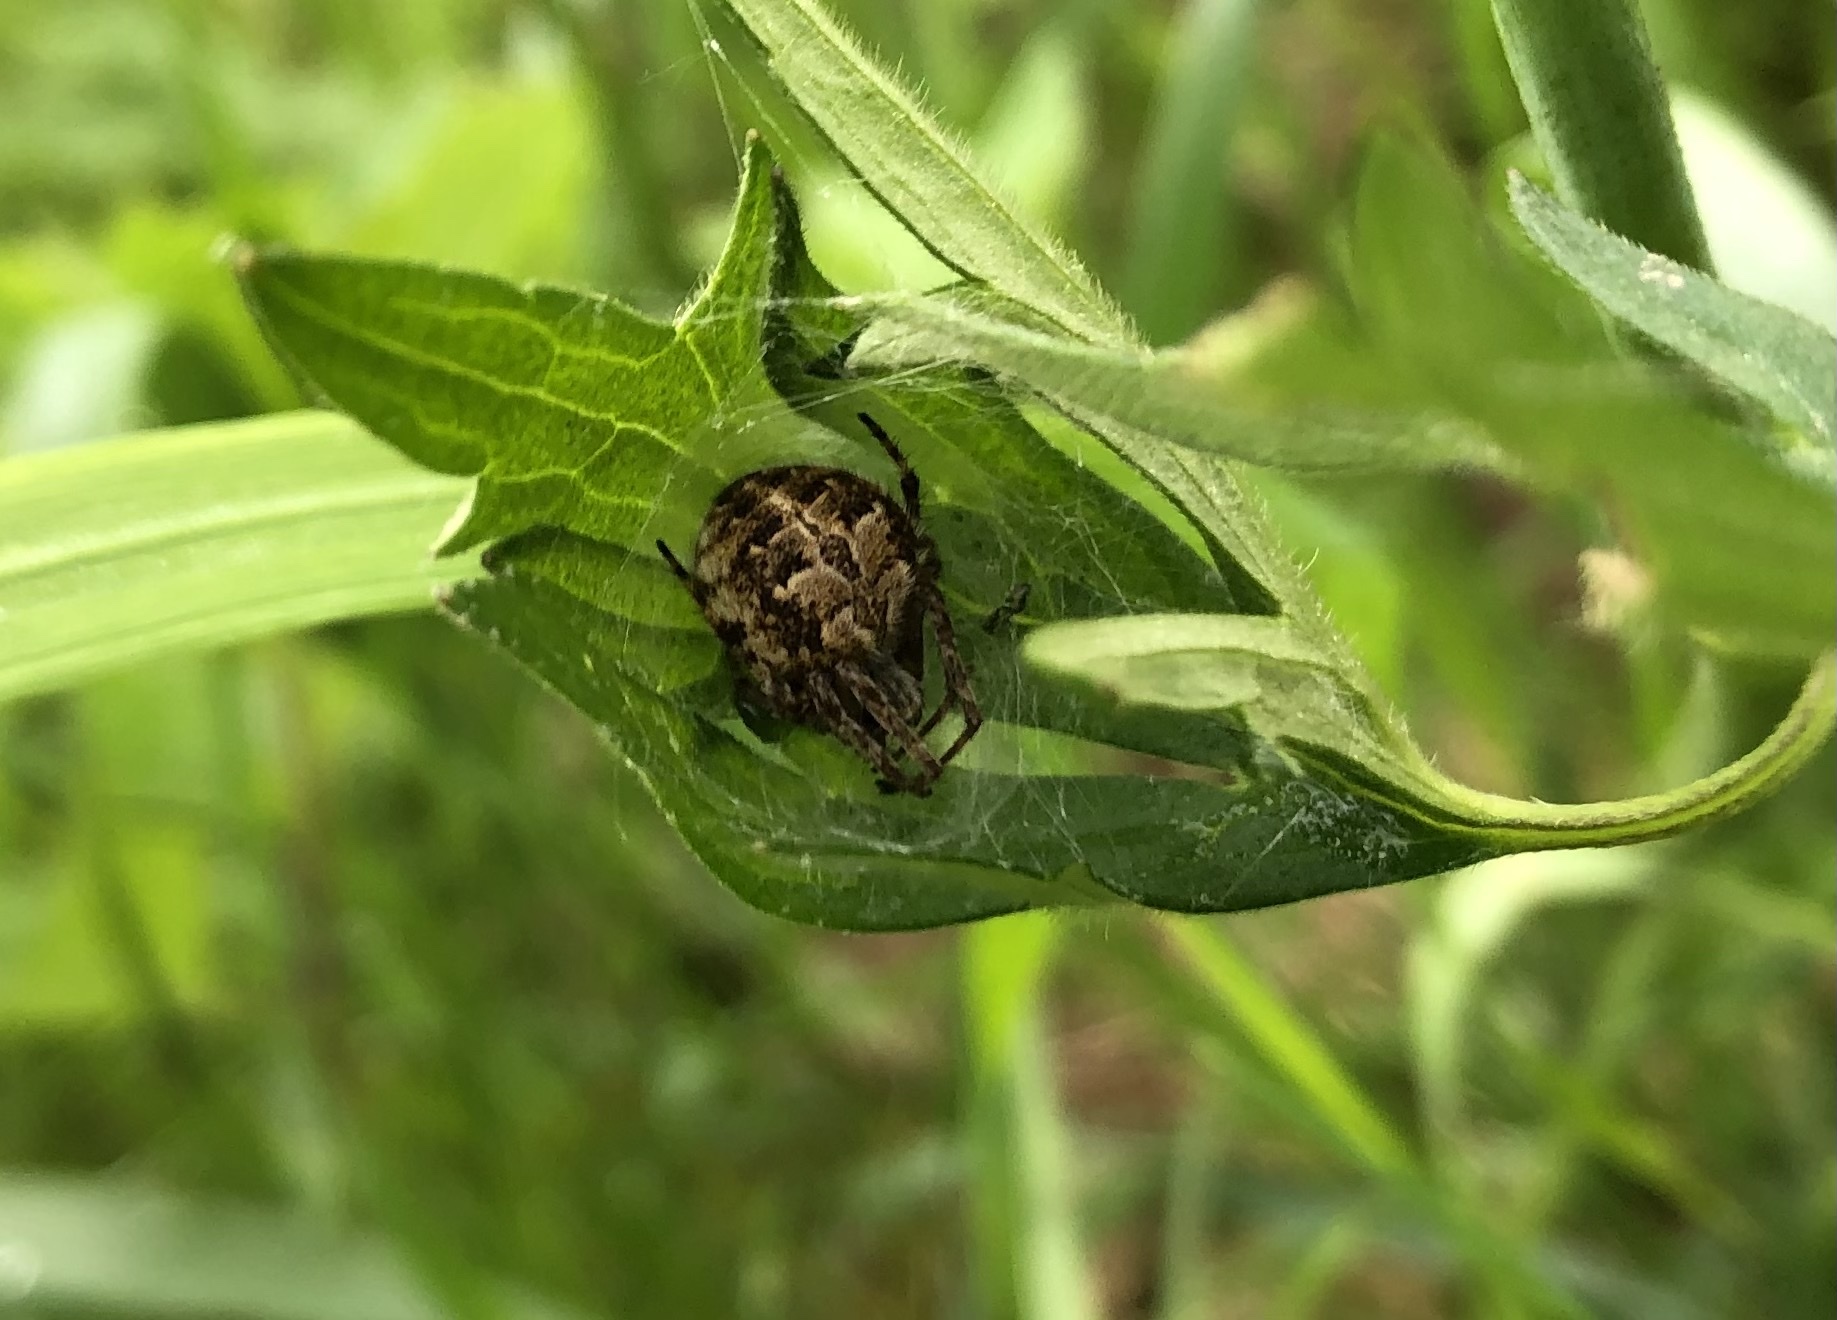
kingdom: Animalia
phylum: Arthropoda
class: Arachnida
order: Araneae
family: Araneidae
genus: Agalenatea
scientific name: Agalenatea redii
